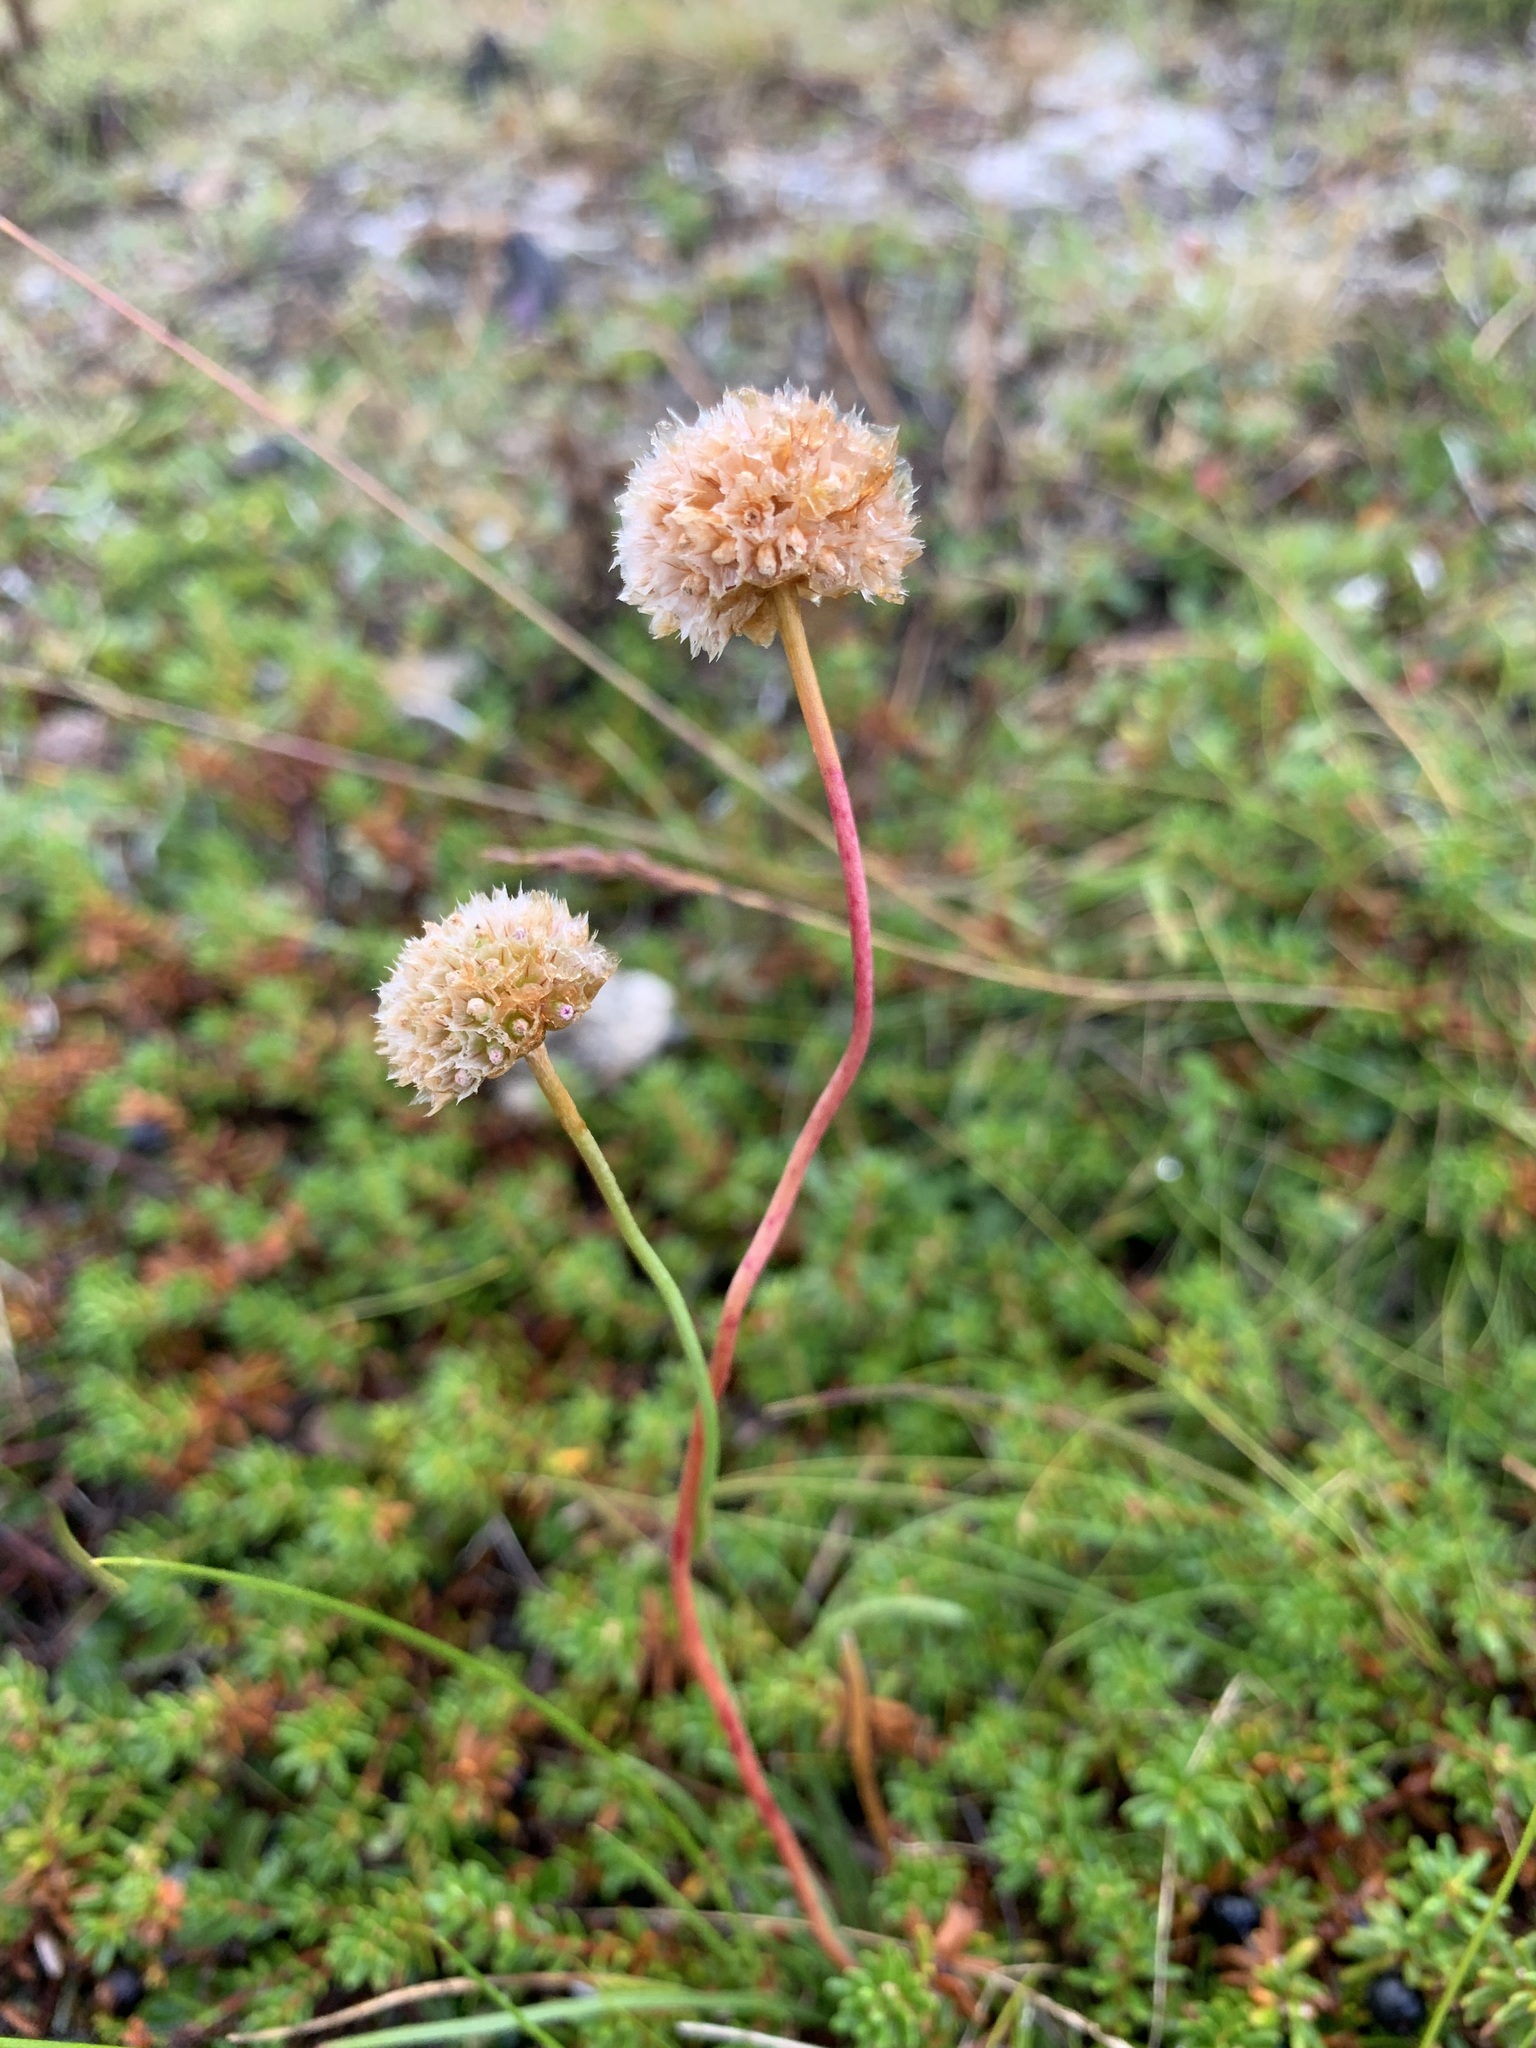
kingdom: Plantae
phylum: Tracheophyta
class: Magnoliopsida
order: Caryophyllales
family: Plumbaginaceae
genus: Armeria
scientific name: Armeria maritima
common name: Thrift
